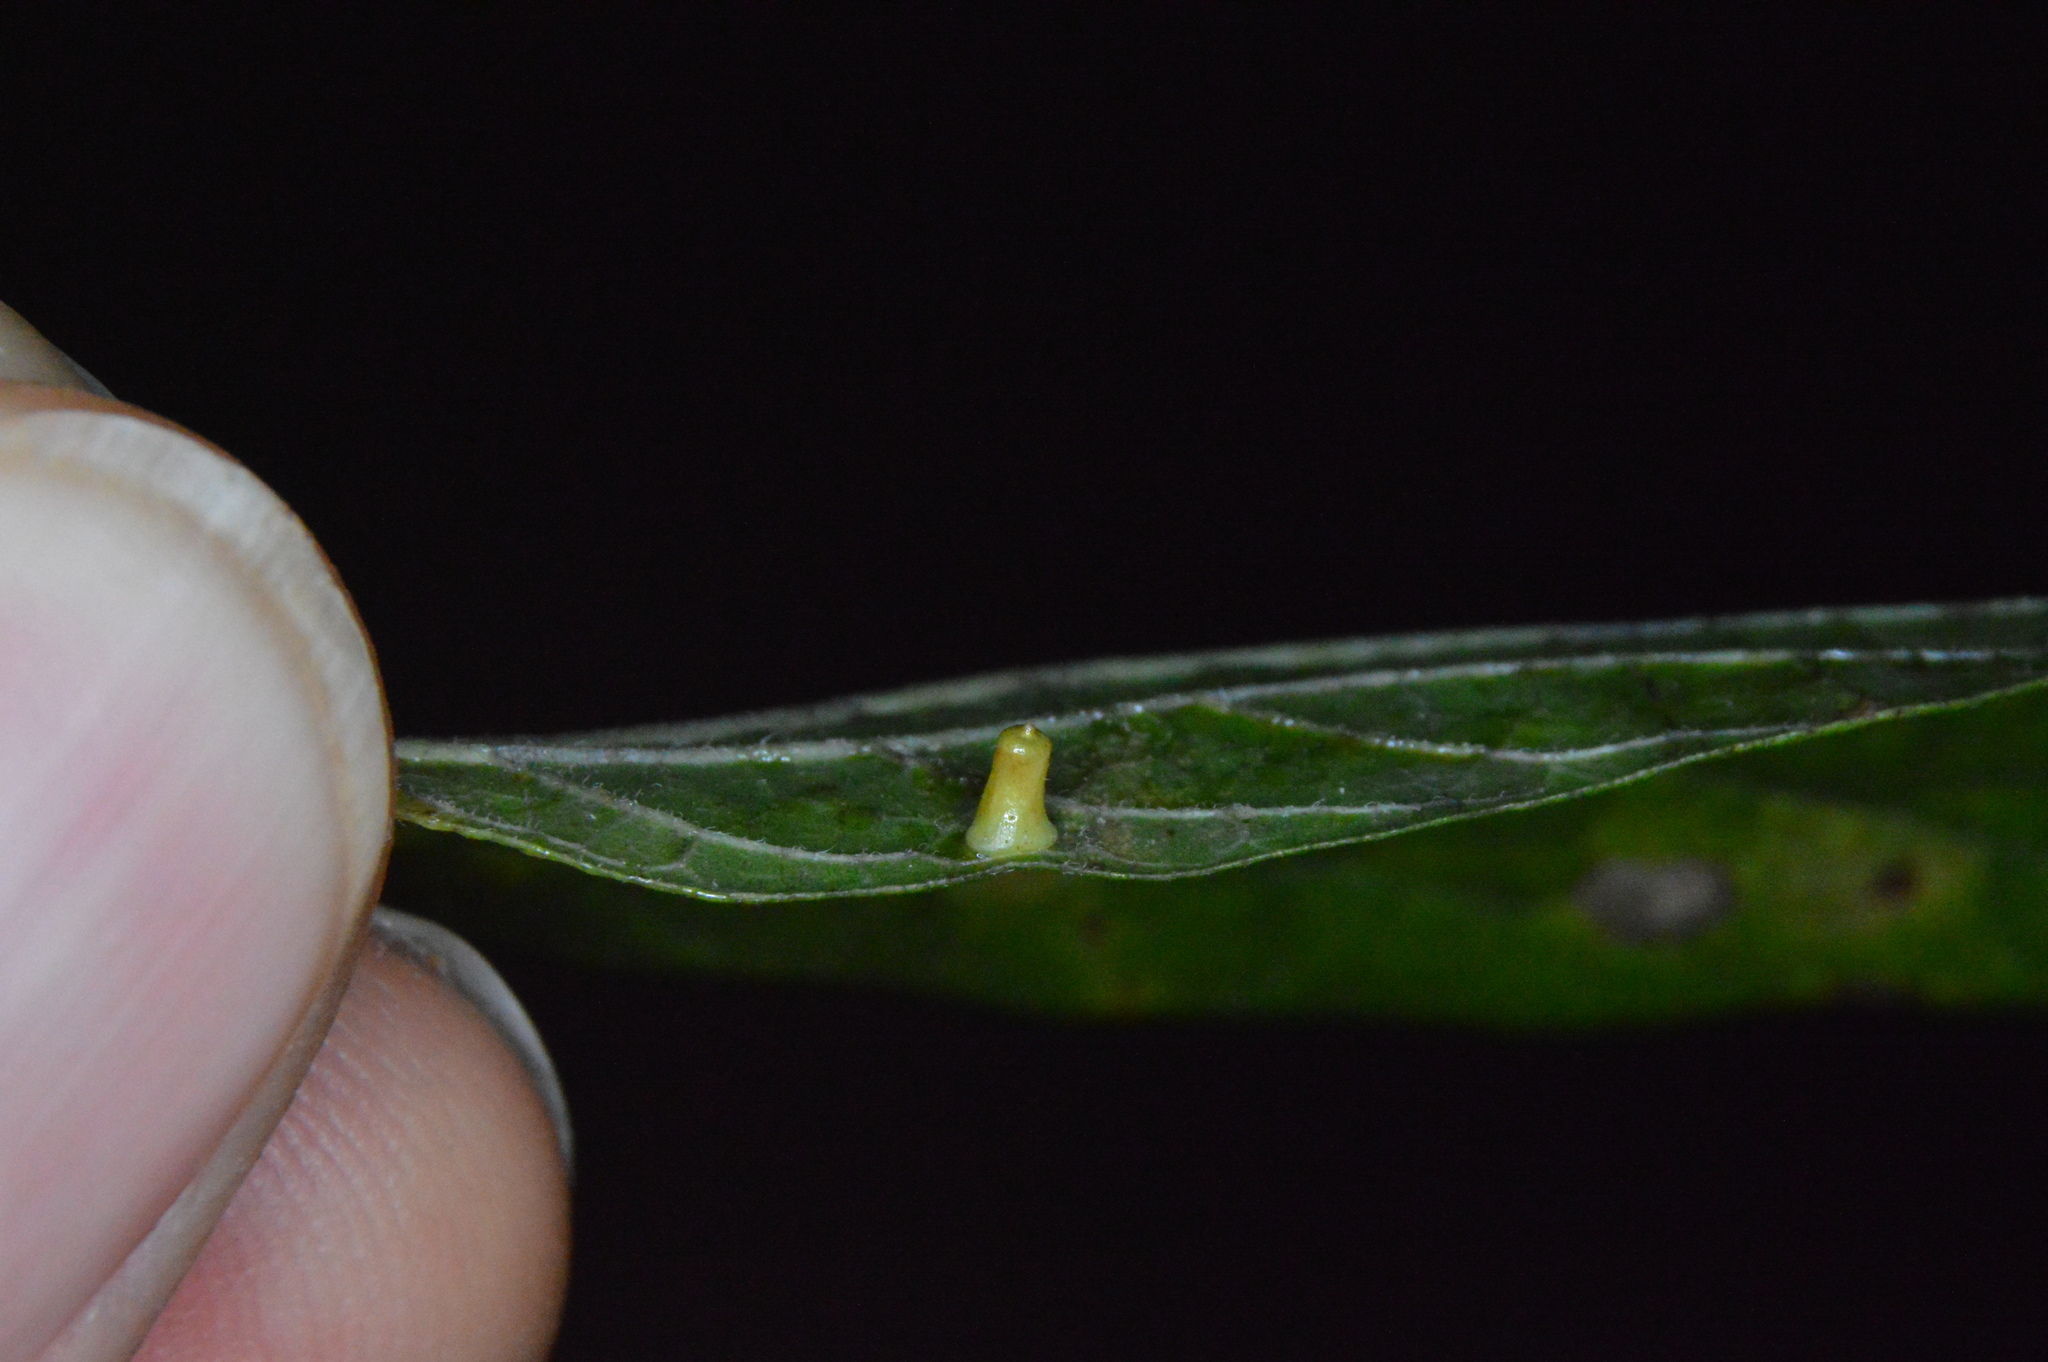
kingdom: Animalia
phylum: Arthropoda
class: Insecta
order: Diptera
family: Cecidomyiidae
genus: Celticecis
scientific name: Celticecis aciculata
